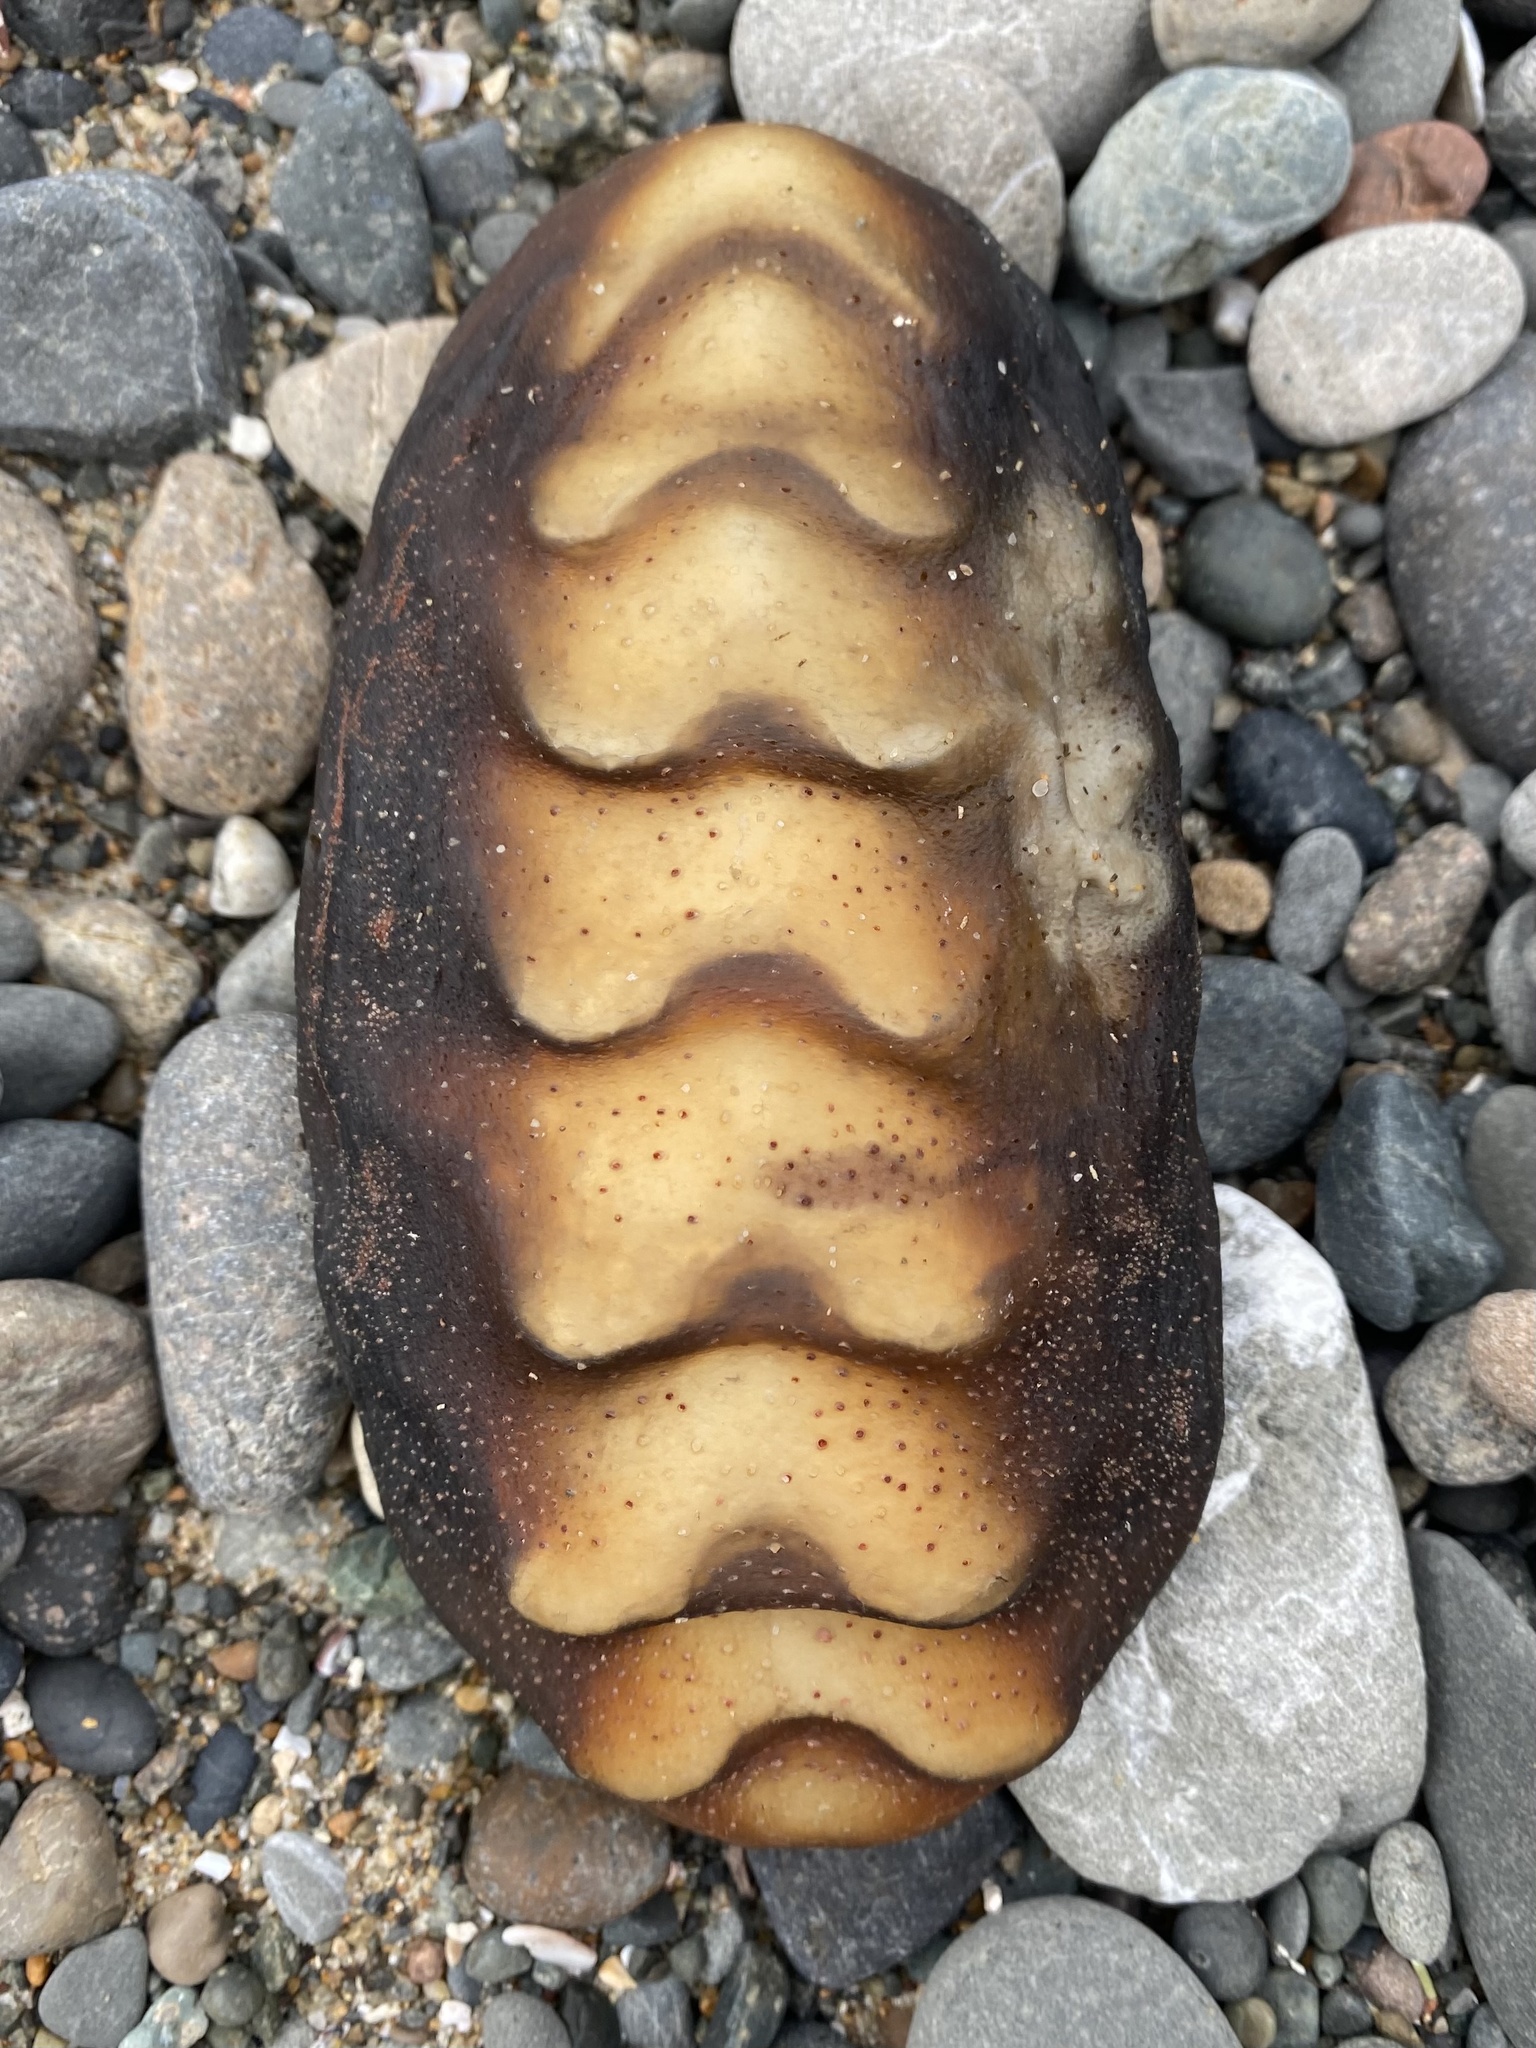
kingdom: Animalia
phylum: Mollusca
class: Polyplacophora
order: Chitonida
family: Acanthochitonidae
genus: Cryptochiton
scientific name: Cryptochiton stelleri
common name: Giant pacific chiton
